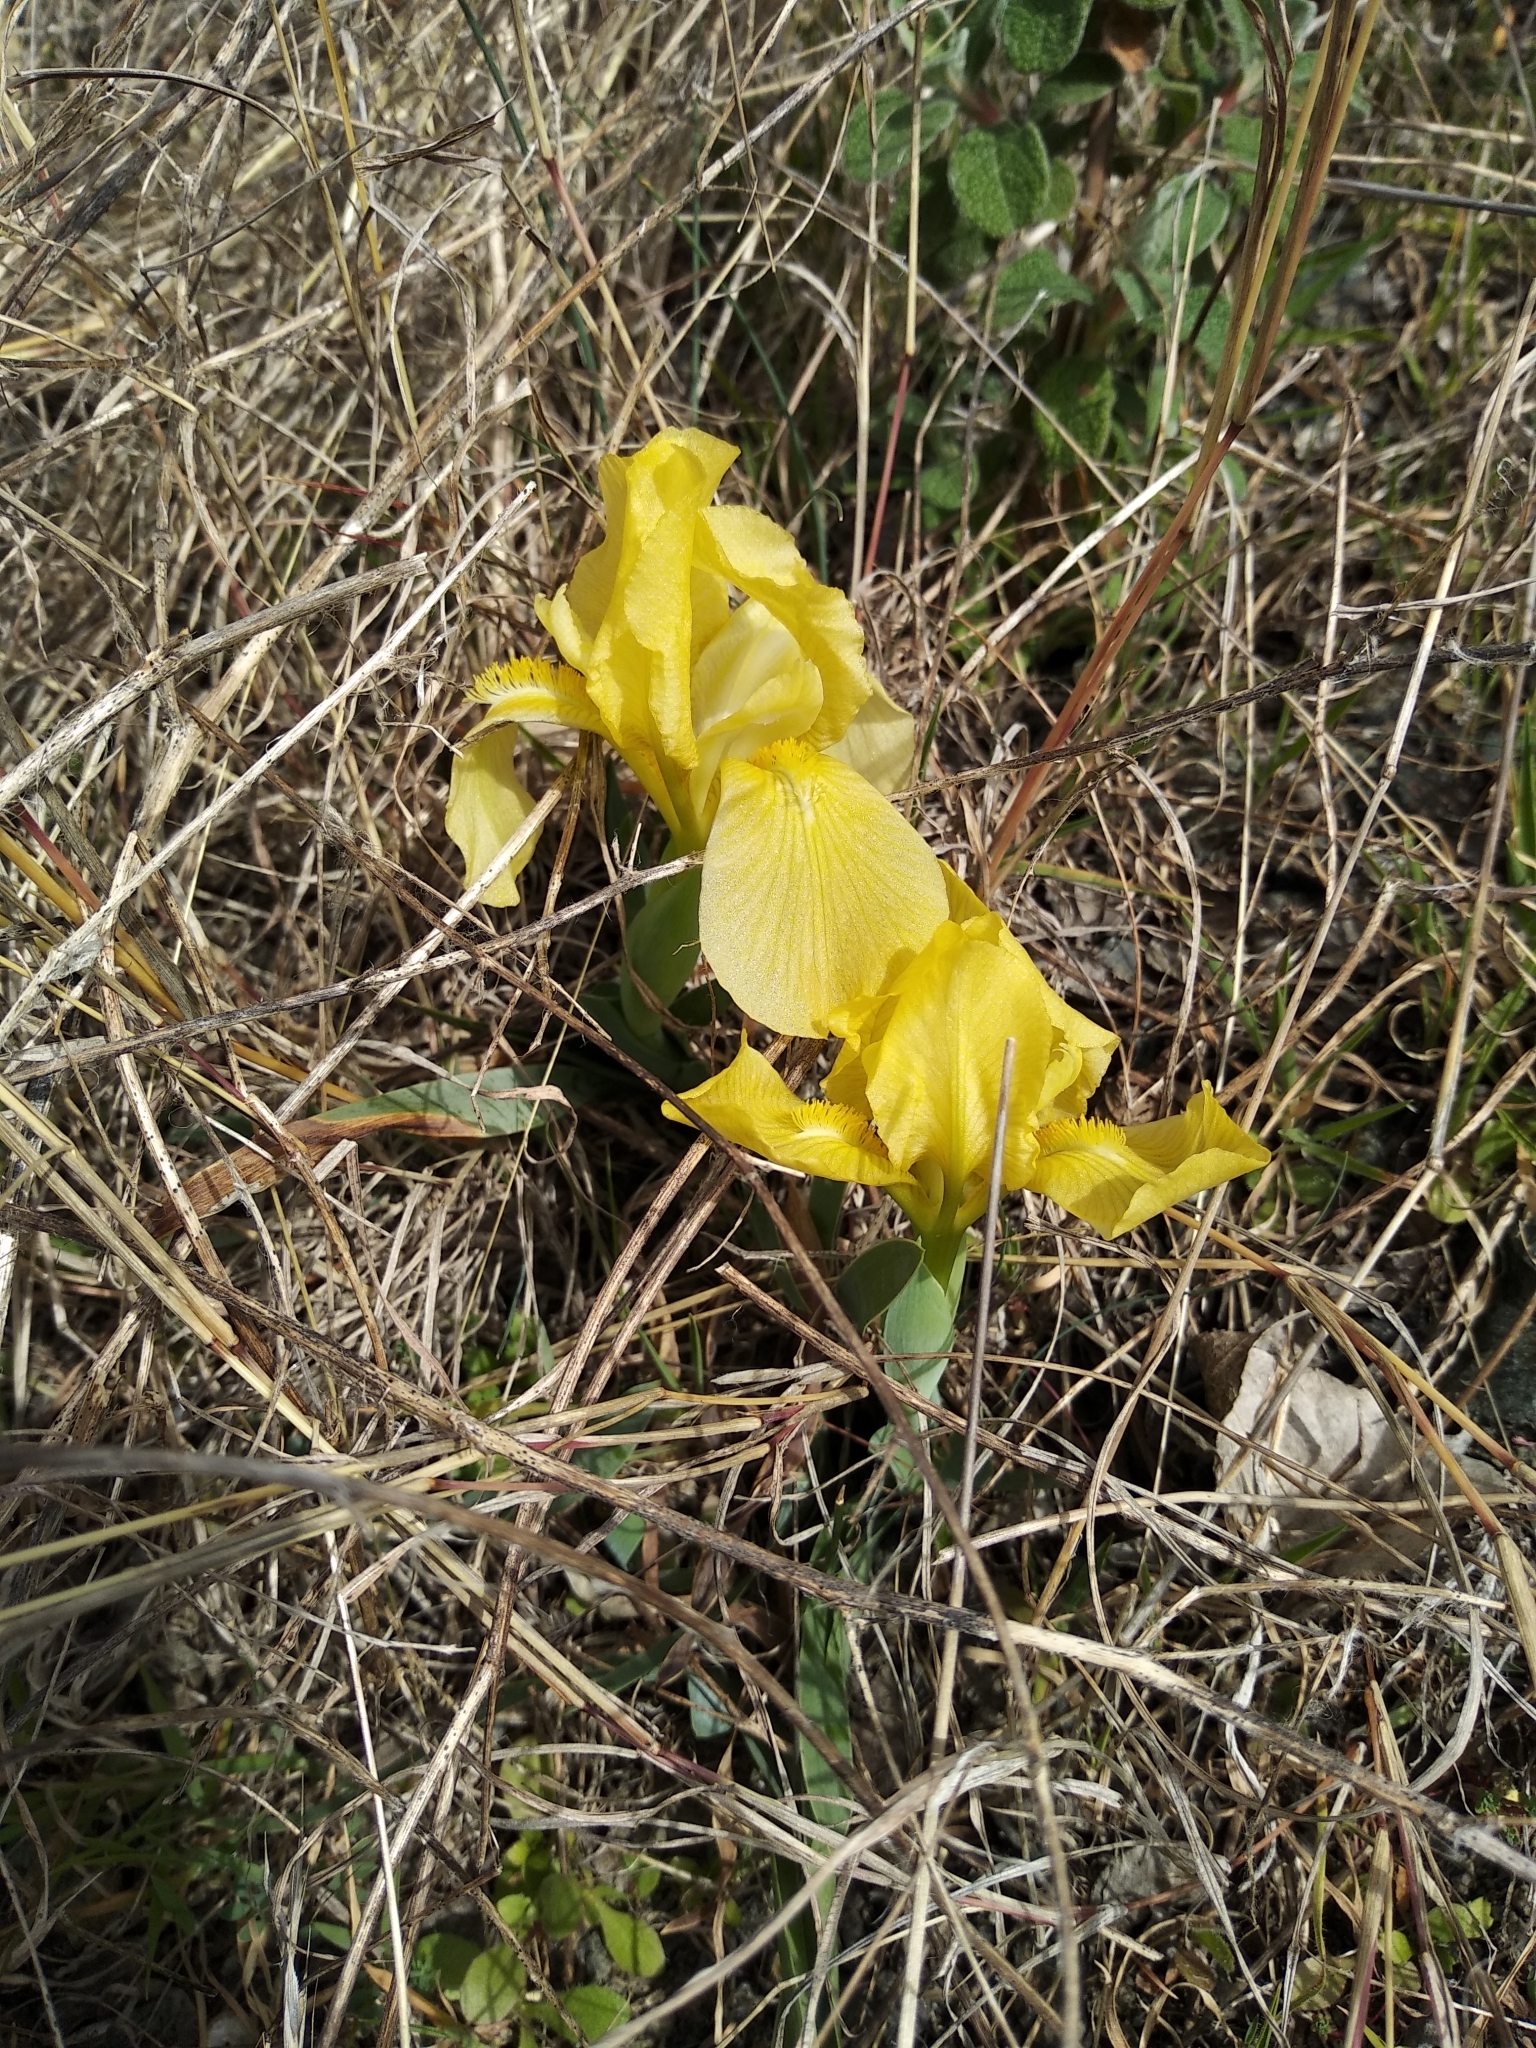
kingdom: Plantae
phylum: Tracheophyta
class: Liliopsida
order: Asparagales
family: Iridaceae
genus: Iris
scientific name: Iris lutescens
